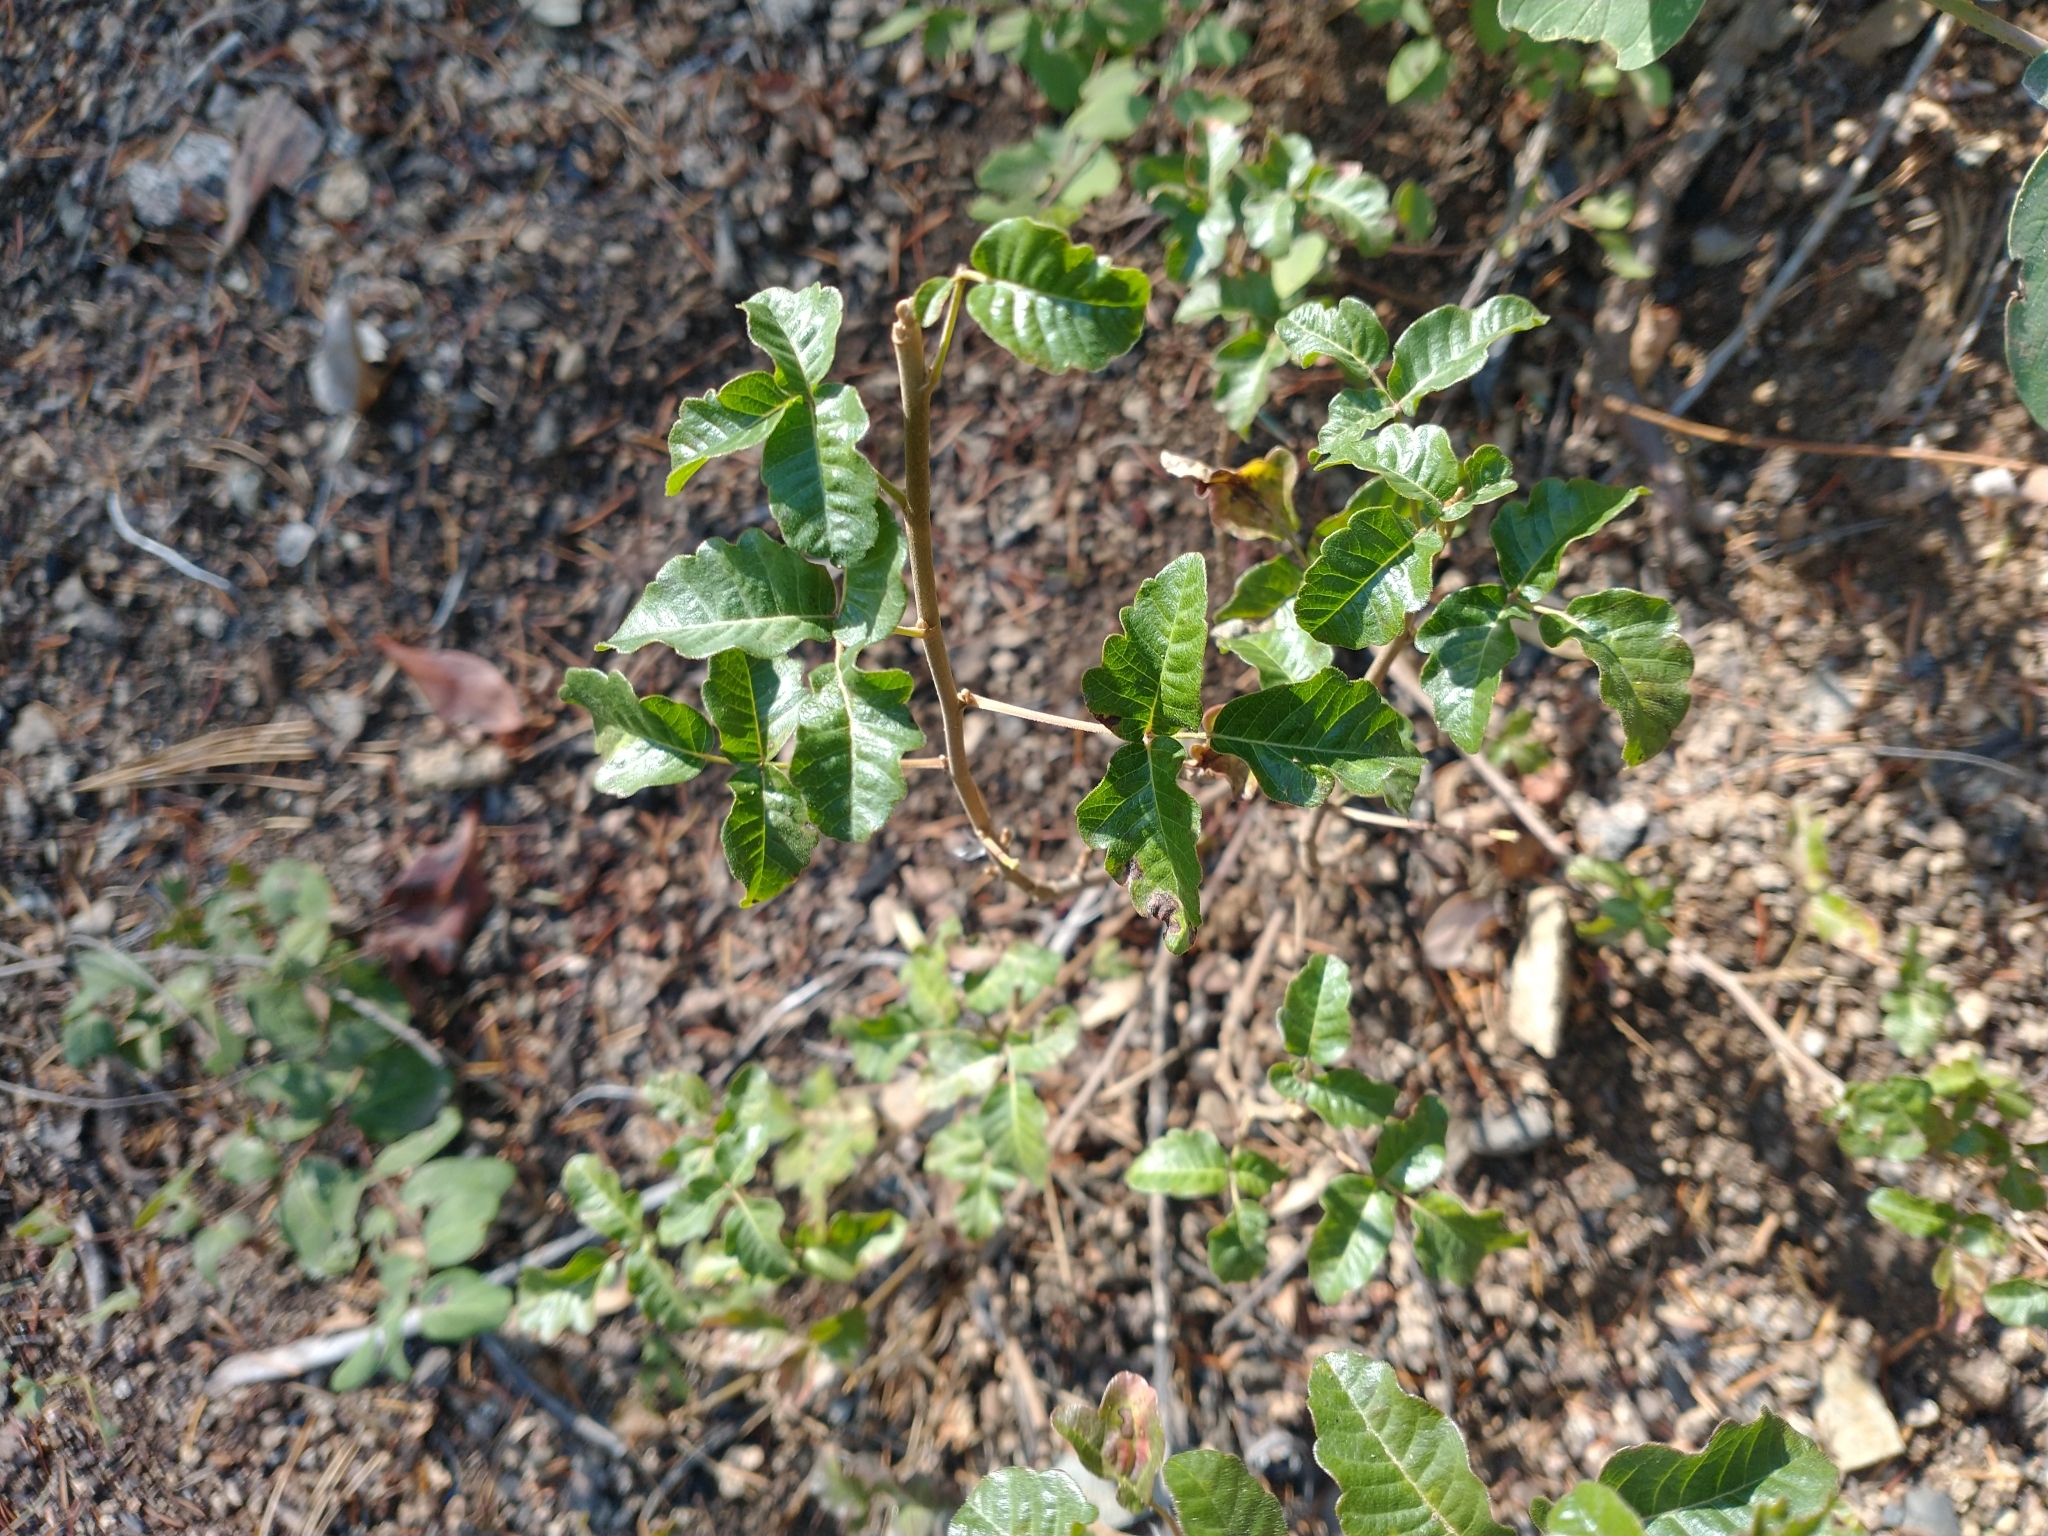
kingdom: Plantae
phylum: Tracheophyta
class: Magnoliopsida
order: Sapindales
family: Anacardiaceae
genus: Toxicodendron
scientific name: Toxicodendron diversilobum
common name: Pacific poison-oak
